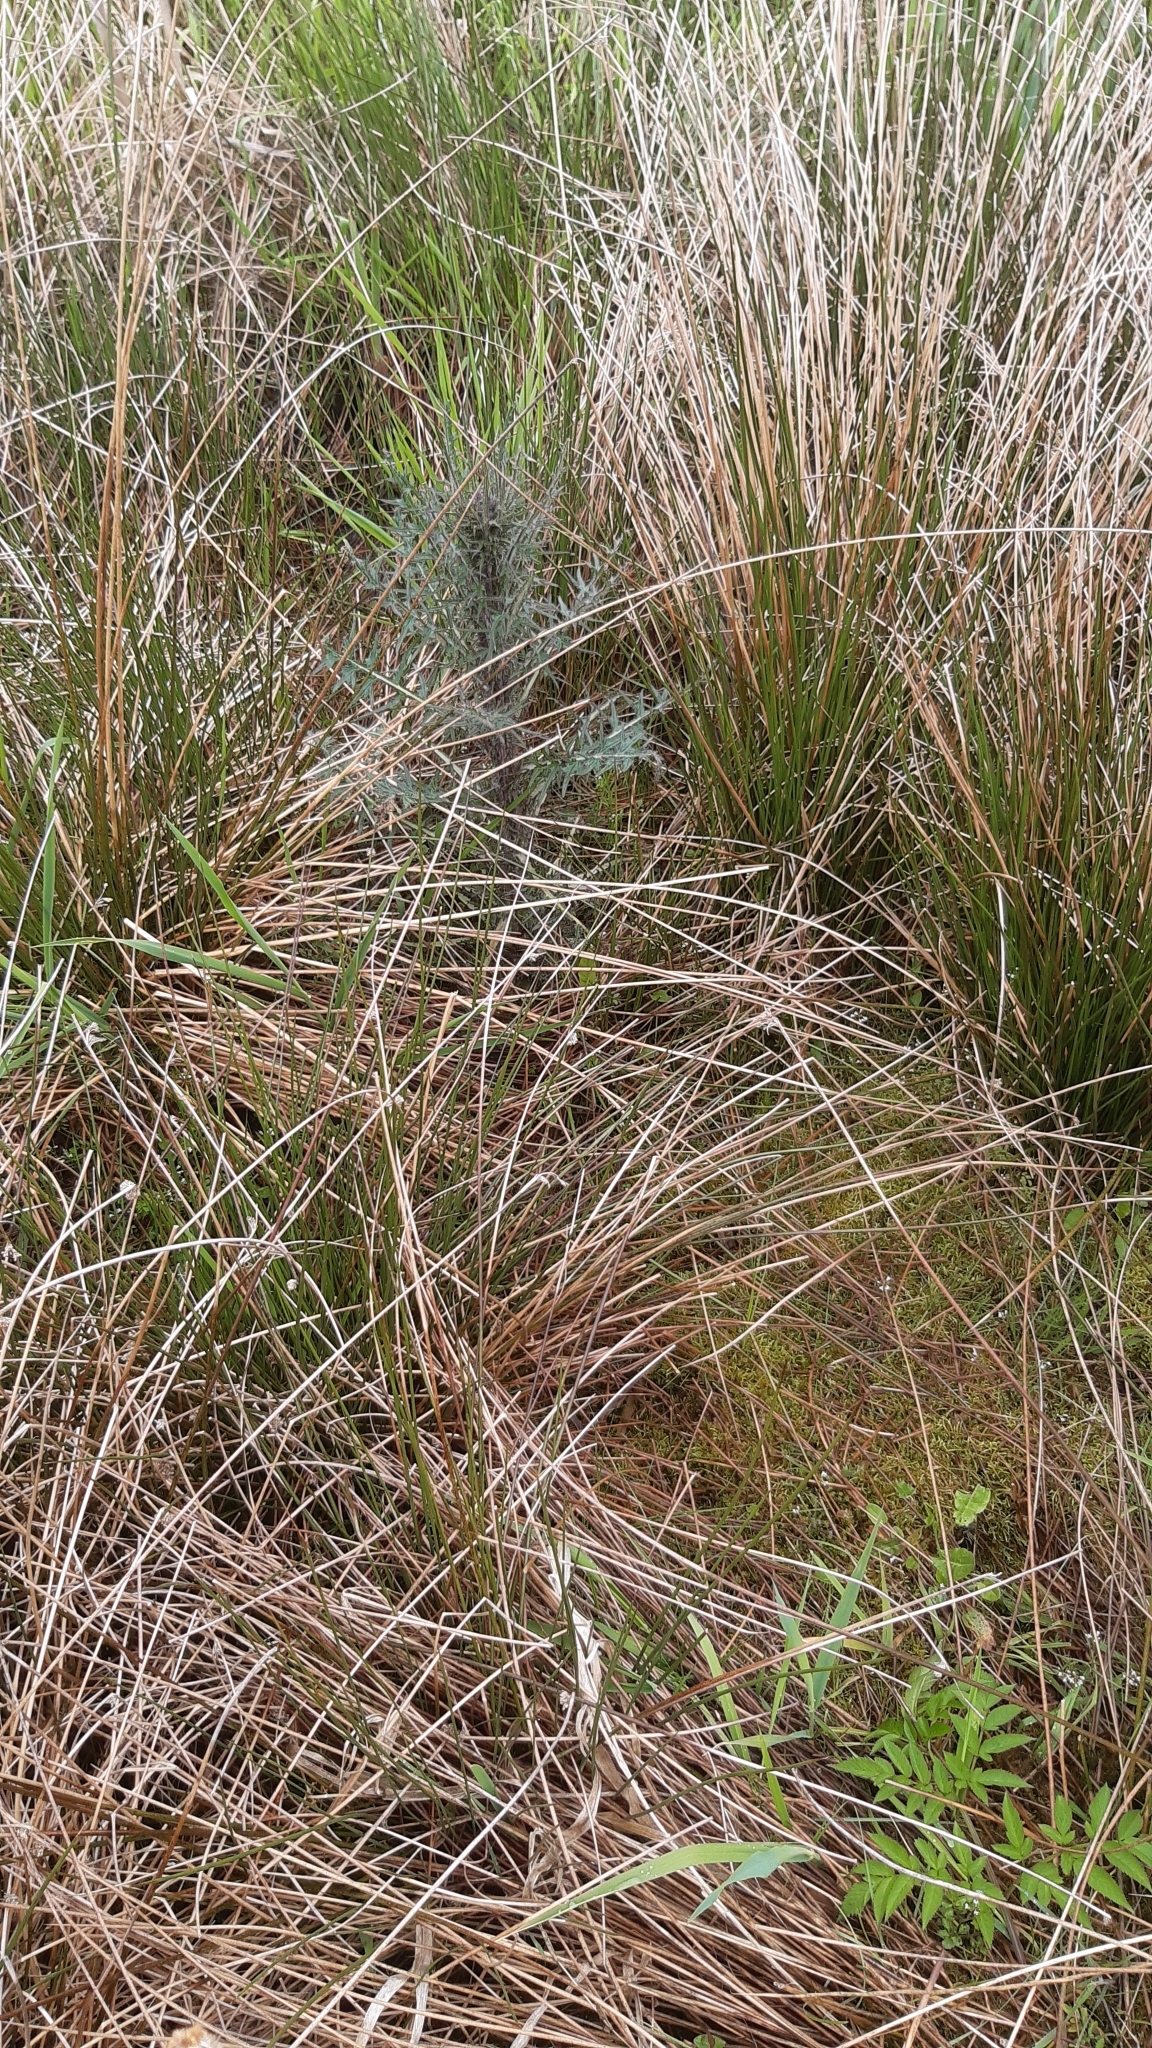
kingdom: Plantae
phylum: Tracheophyta
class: Liliopsida
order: Poales
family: Juncaceae
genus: Juncus
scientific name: Juncus effusus
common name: Soft rush
